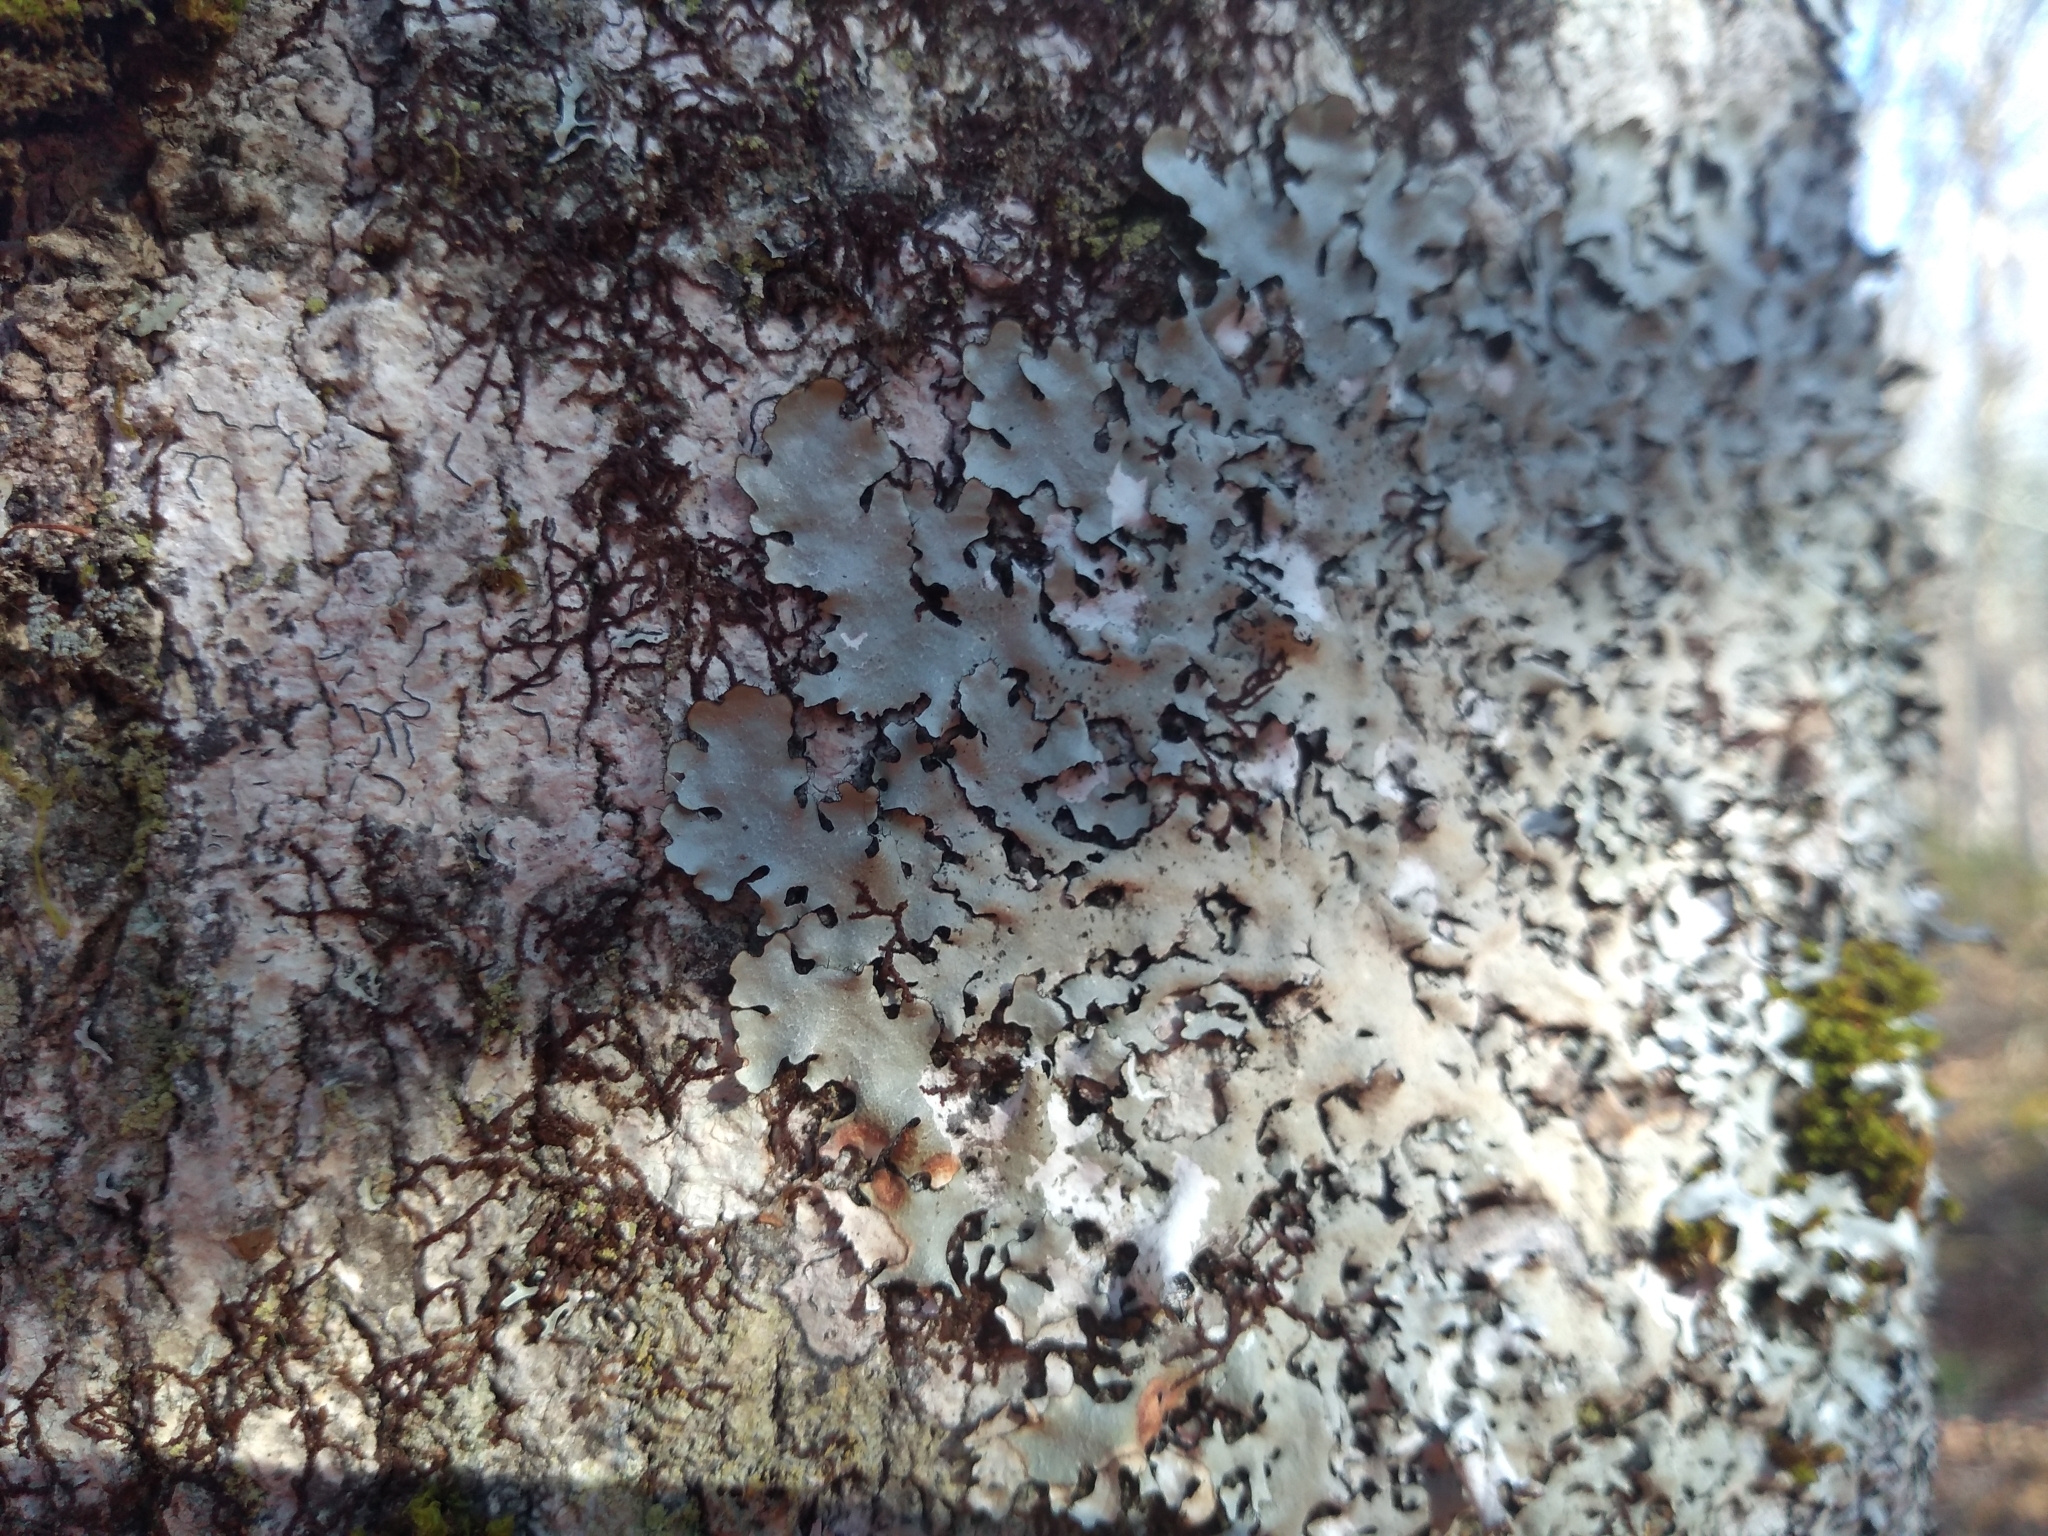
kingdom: Fungi
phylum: Ascomycota
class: Lecanoromycetes
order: Lecanorales
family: Parmeliaceae
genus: Parmotrema
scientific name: Parmotrema reticulatum
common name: Black sheet lichen
